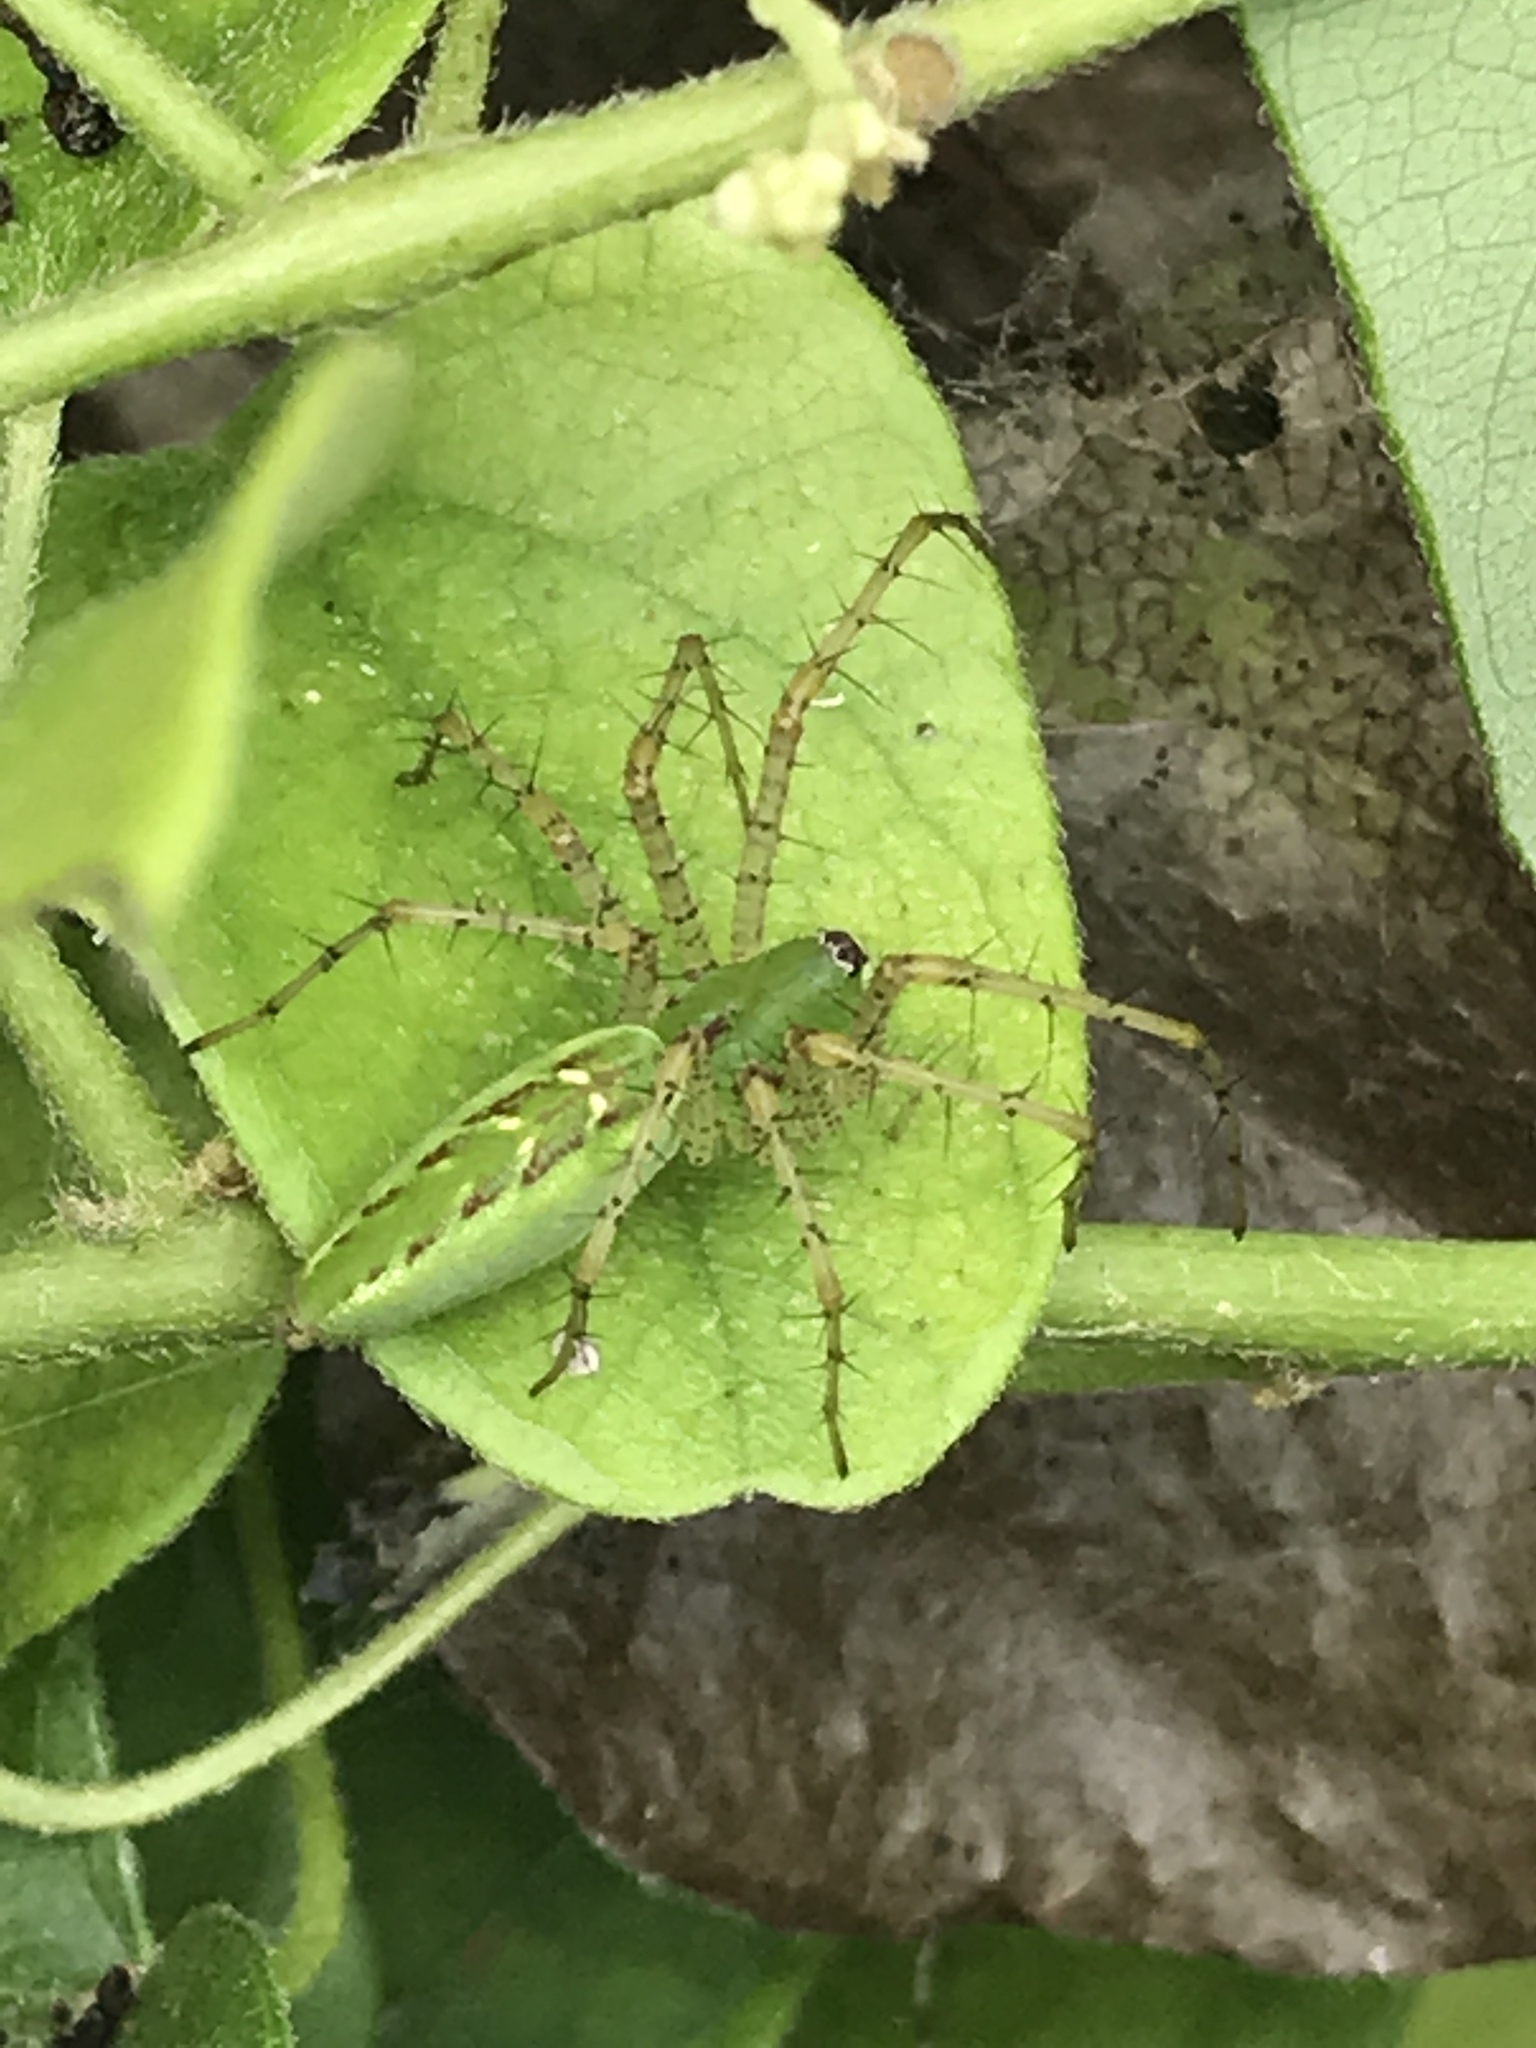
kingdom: Animalia
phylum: Arthropoda
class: Arachnida
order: Araneae
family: Oxyopidae
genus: Peucetia
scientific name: Peucetia viridans
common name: Lynx spiders
